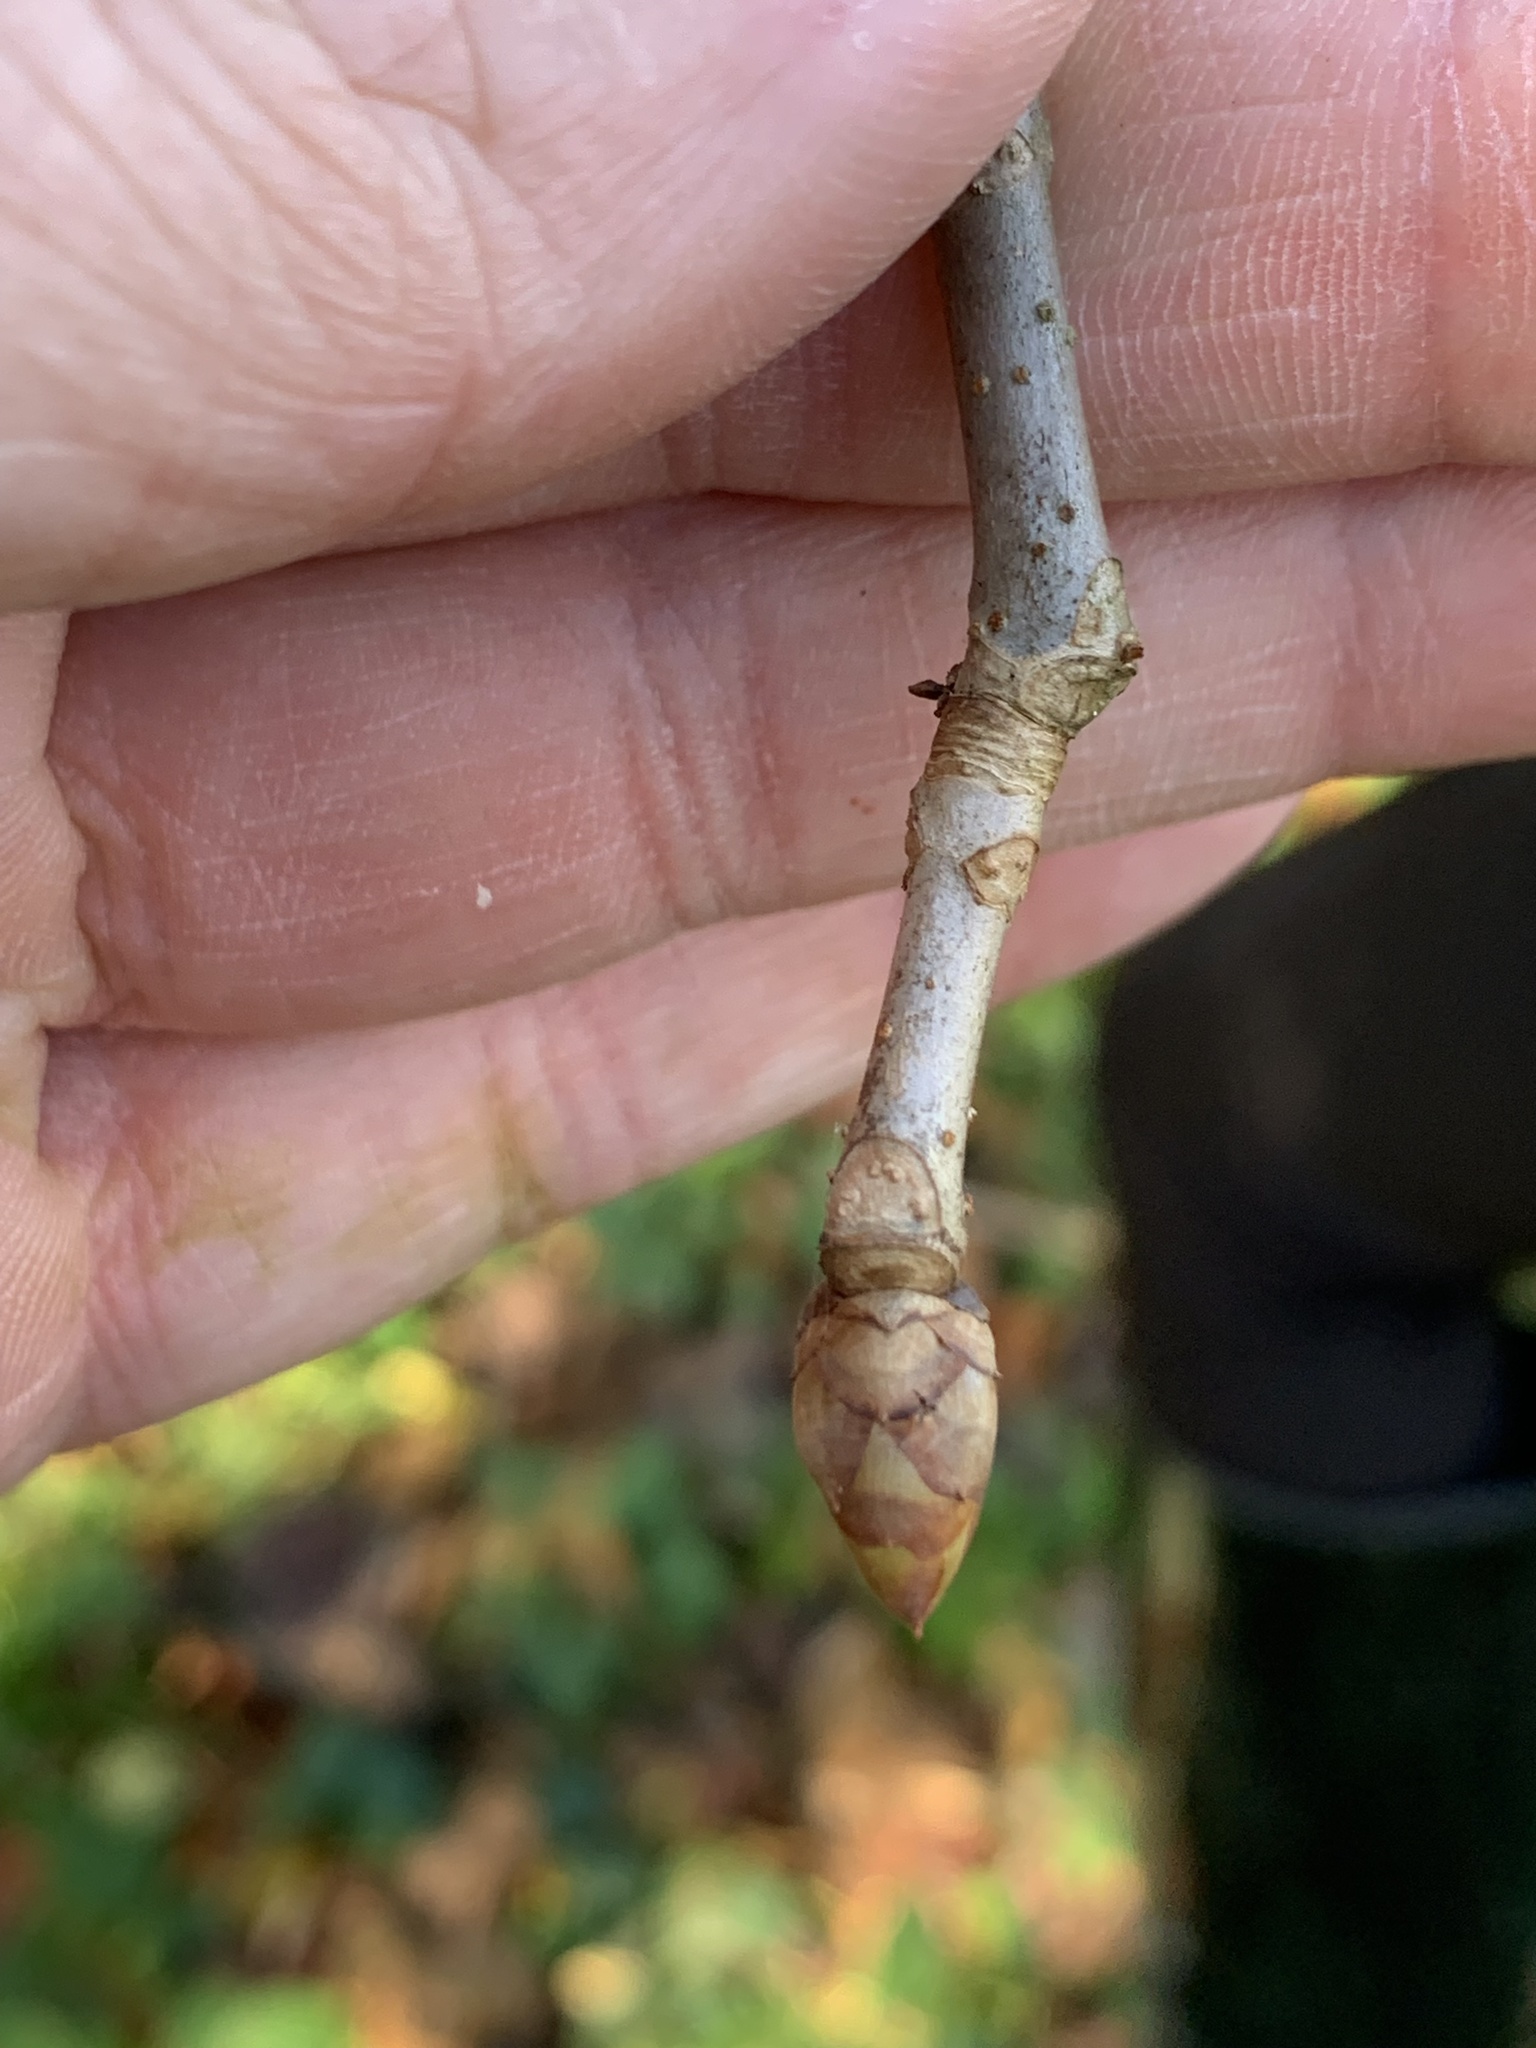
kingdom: Plantae
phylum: Tracheophyta
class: Magnoliopsida
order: Sapindales
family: Sapindaceae
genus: Aesculus
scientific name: Aesculus pavia
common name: Red buckeye
